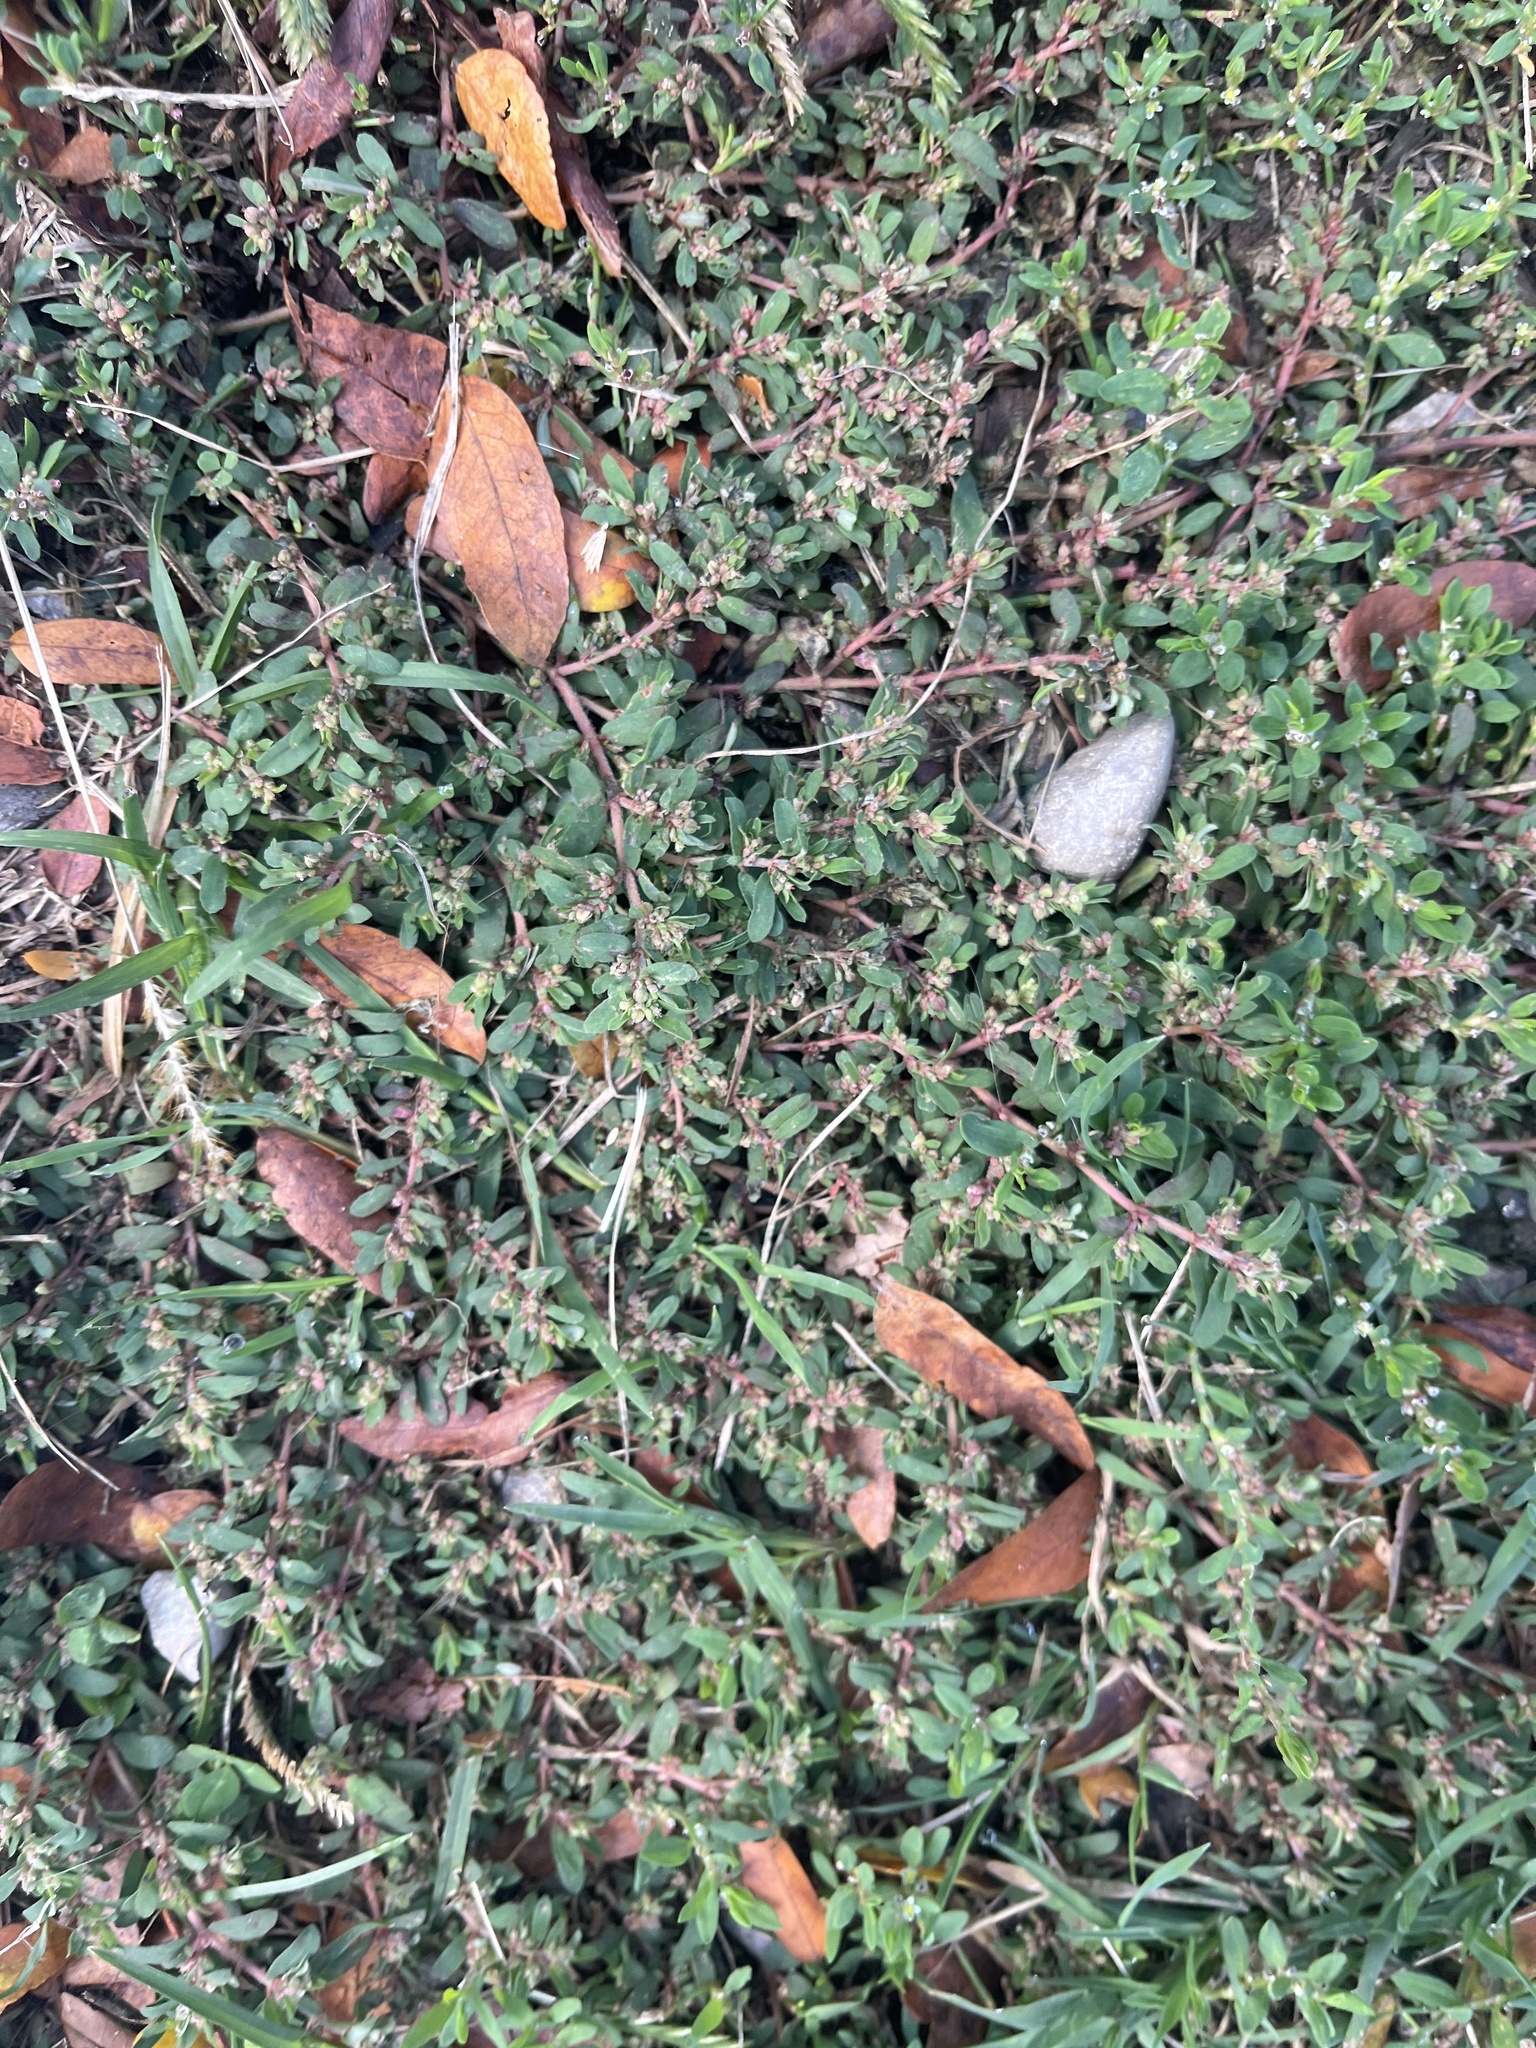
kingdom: Plantae
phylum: Tracheophyta
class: Magnoliopsida
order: Malpighiales
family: Euphorbiaceae
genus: Euphorbia
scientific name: Euphorbia maculata
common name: Spotted spurge
